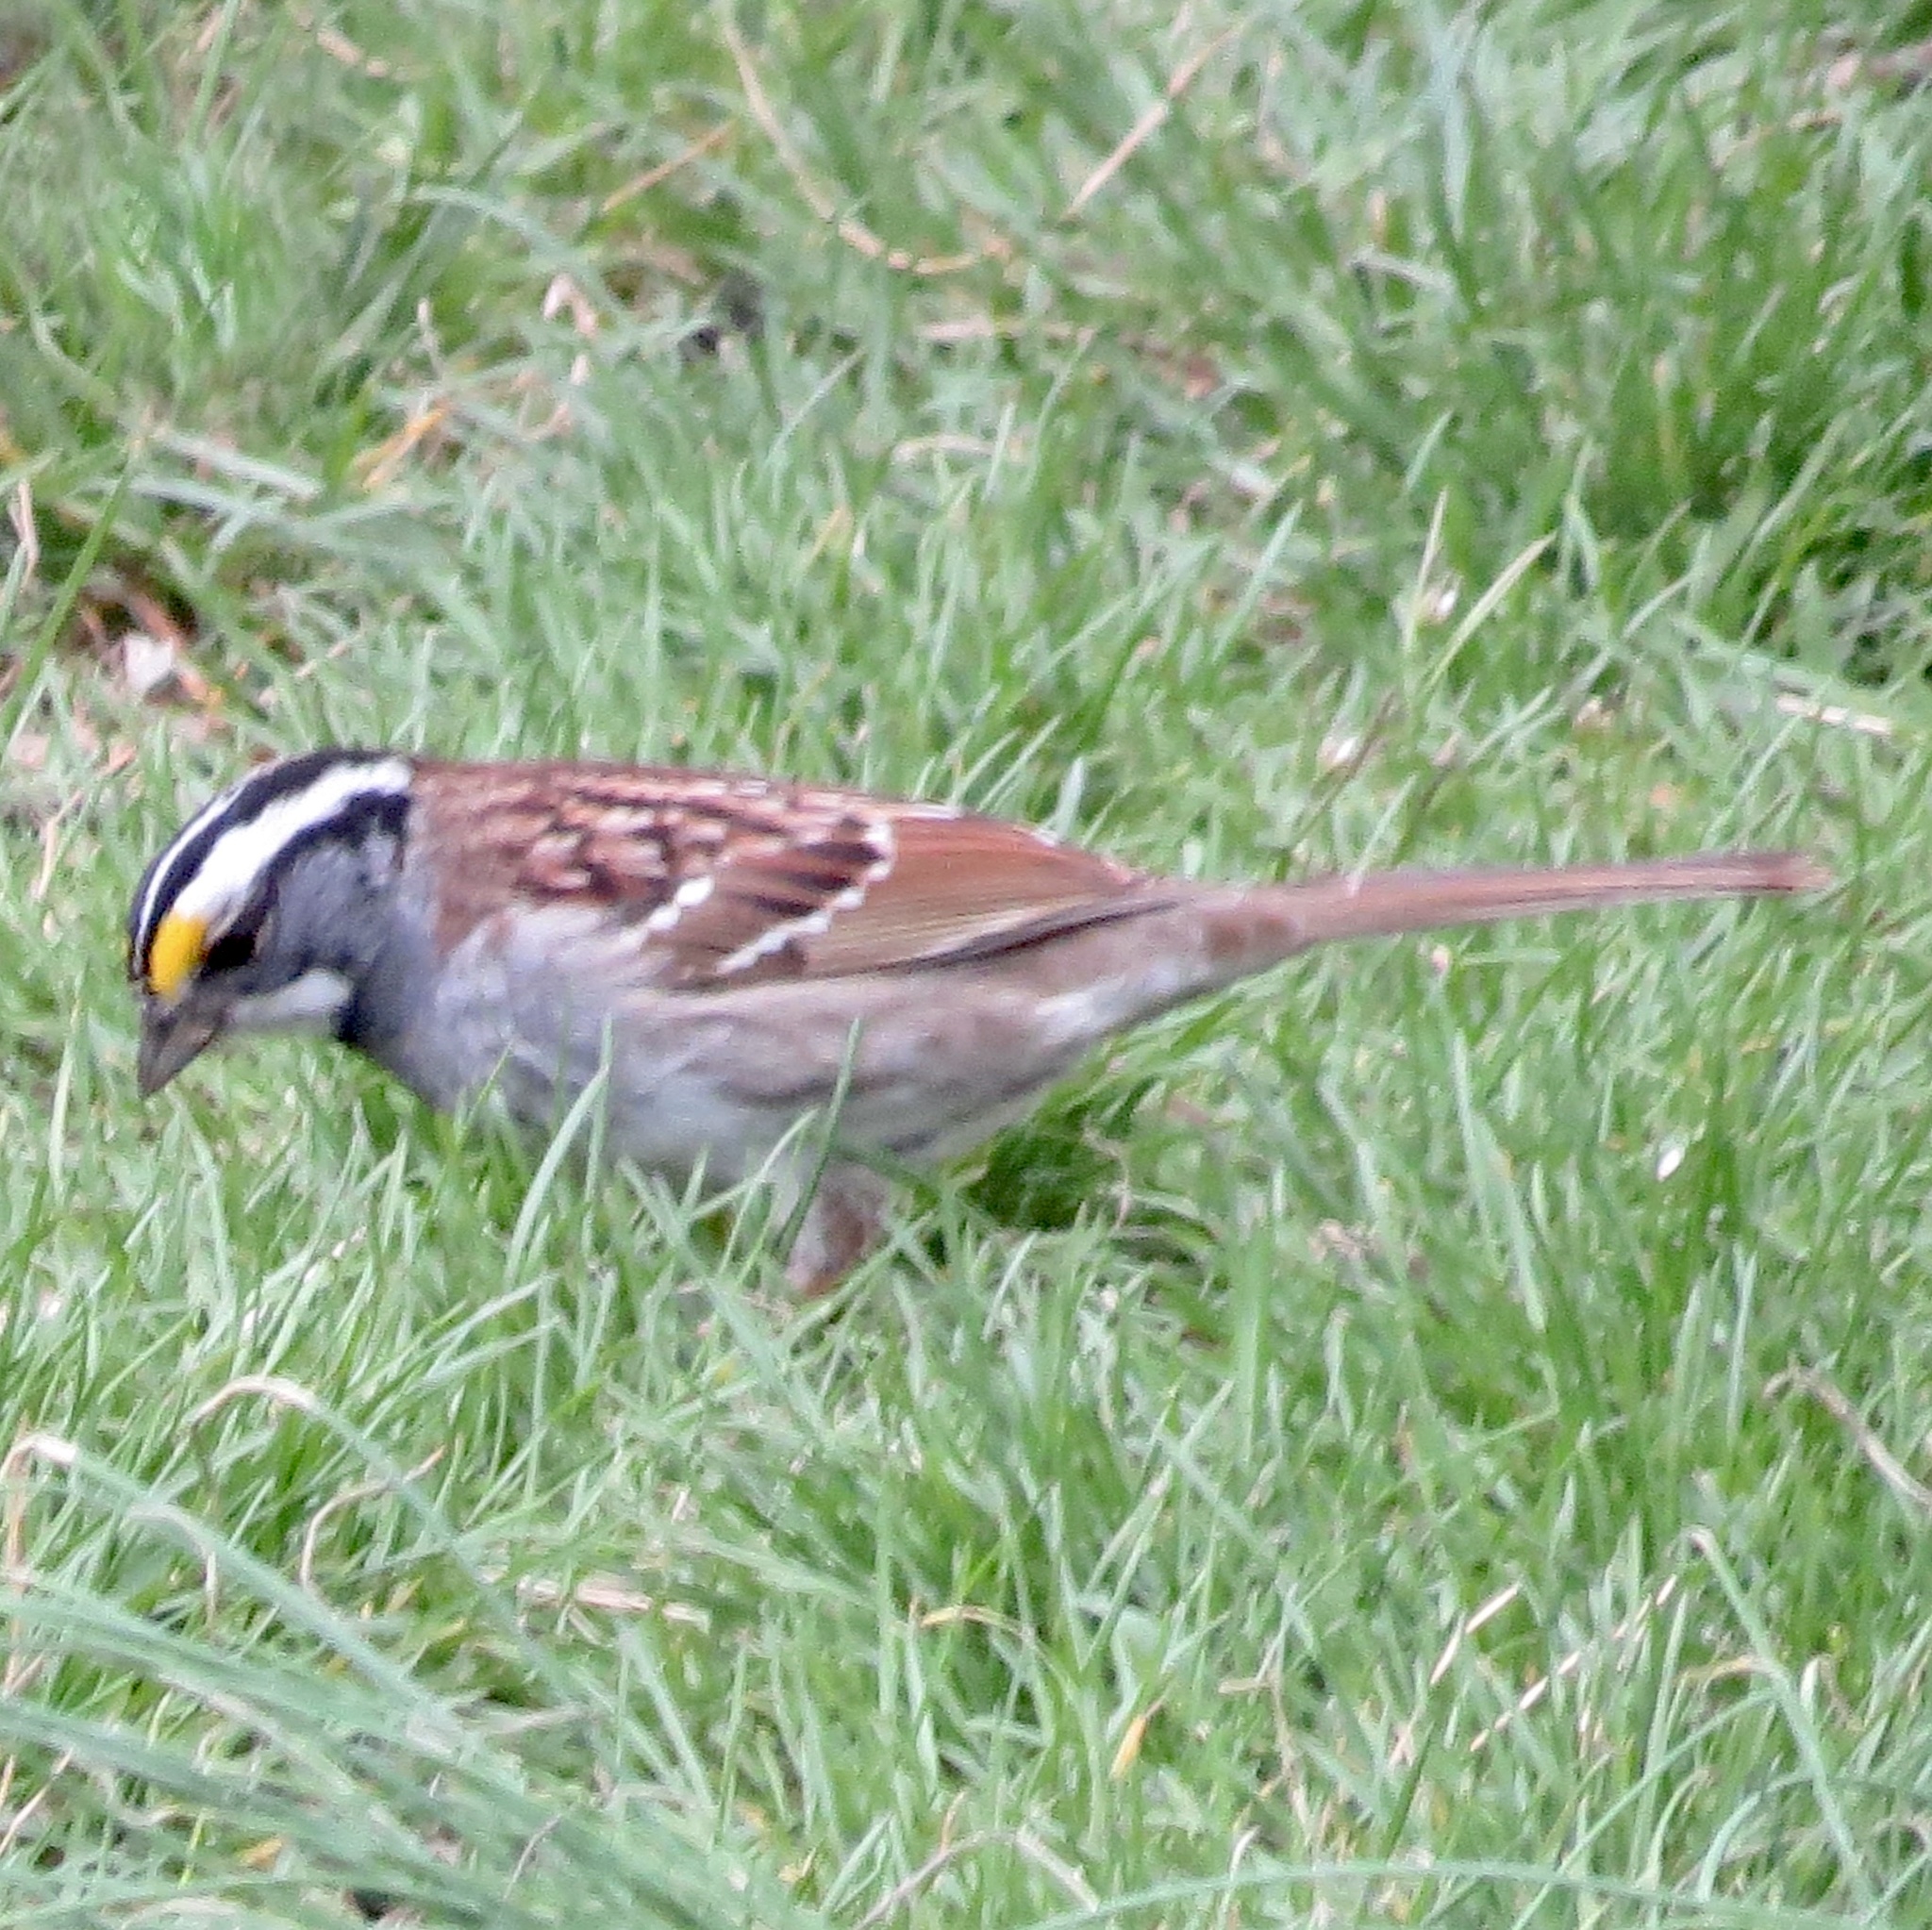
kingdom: Animalia
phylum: Chordata
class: Aves
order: Passeriformes
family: Passerellidae
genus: Zonotrichia
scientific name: Zonotrichia albicollis
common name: White-throated sparrow
